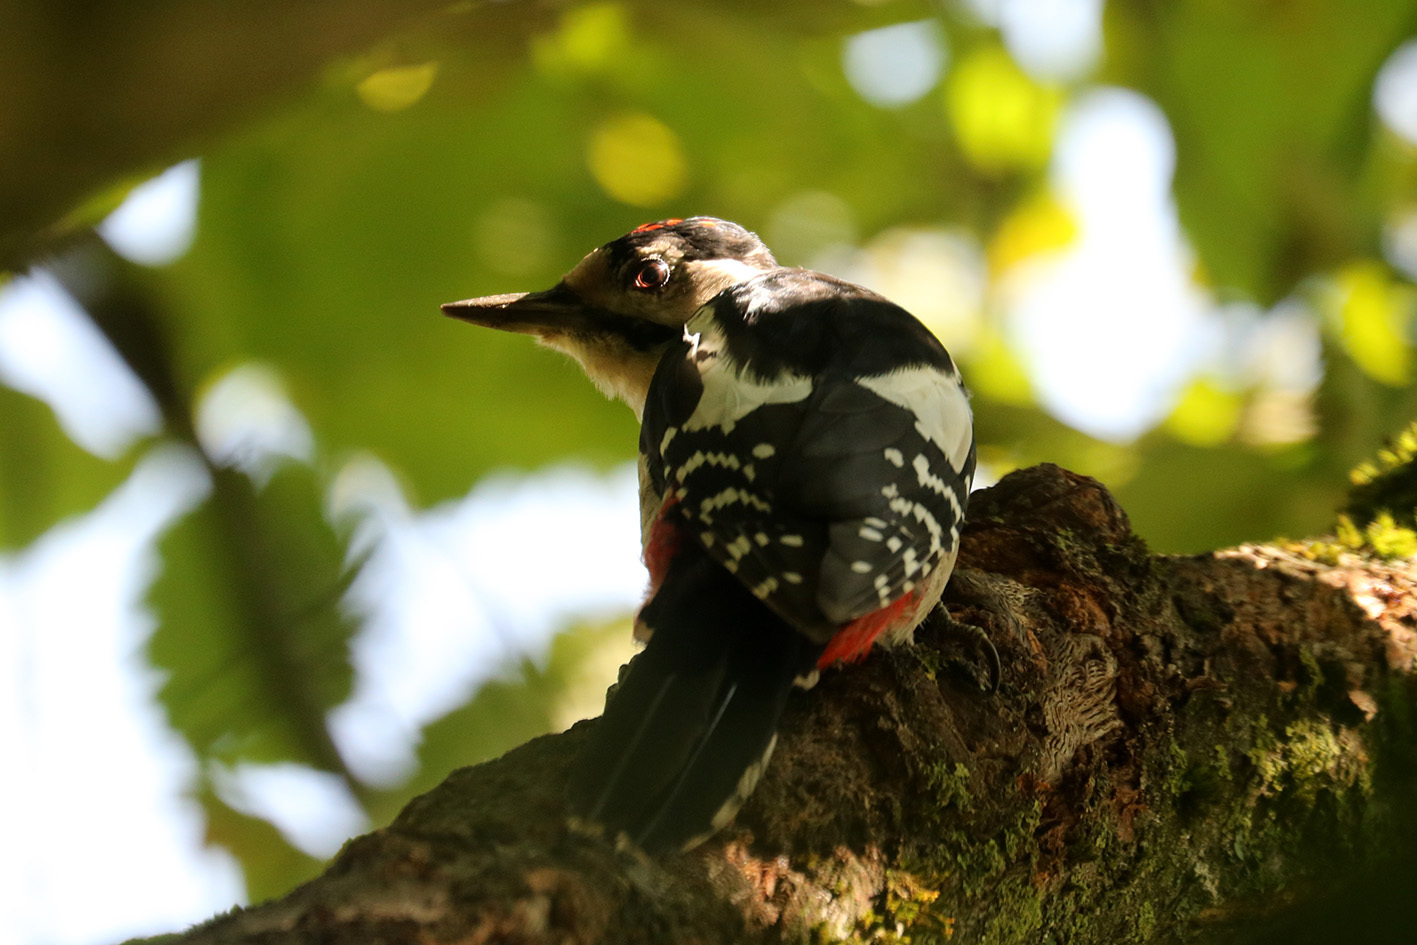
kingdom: Animalia
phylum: Chordata
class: Aves
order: Piciformes
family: Picidae
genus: Dendrocopos
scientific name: Dendrocopos major
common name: Great spotted woodpecker
